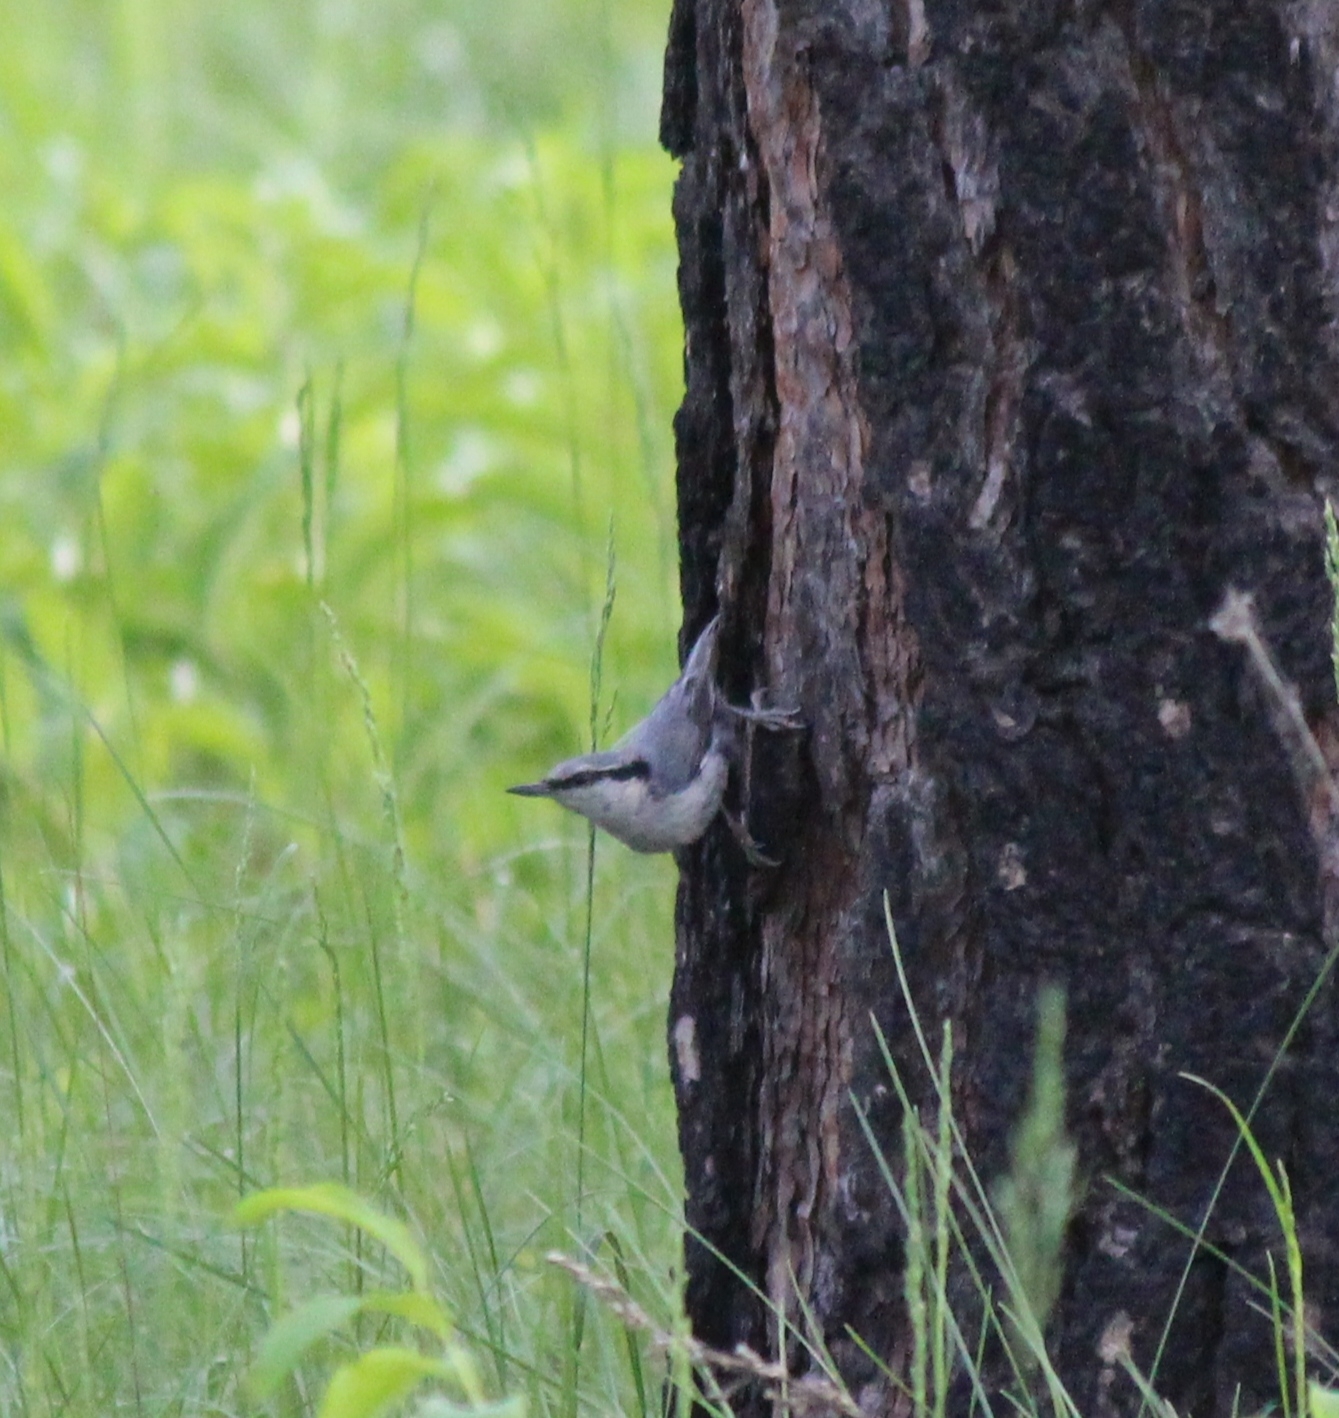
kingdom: Animalia
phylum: Chordata
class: Aves
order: Passeriformes
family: Sittidae
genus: Sitta
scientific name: Sitta europaea
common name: Eurasian nuthatch
